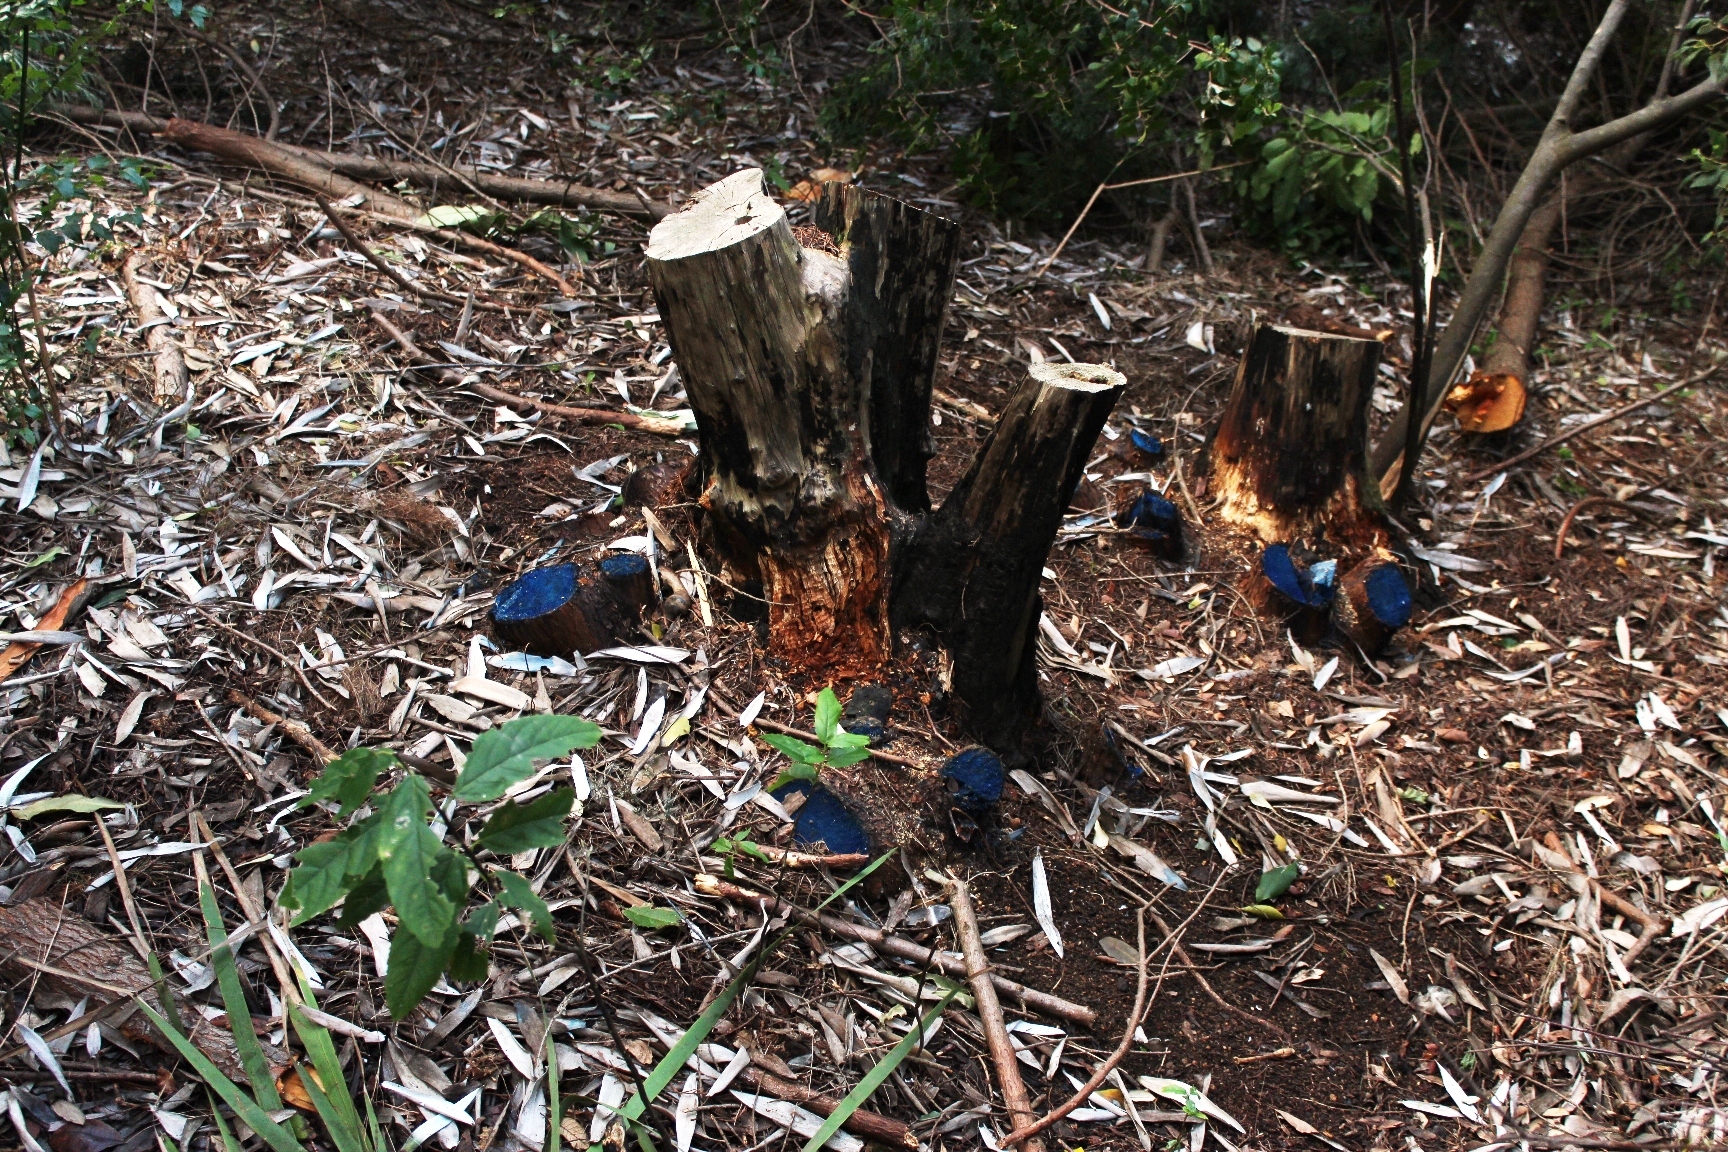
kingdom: Plantae
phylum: Tracheophyta
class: Pinopsida
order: Pinales
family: Cupressaceae
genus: Widdringtonia
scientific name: Widdringtonia nodiflora
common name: Cape cypress
